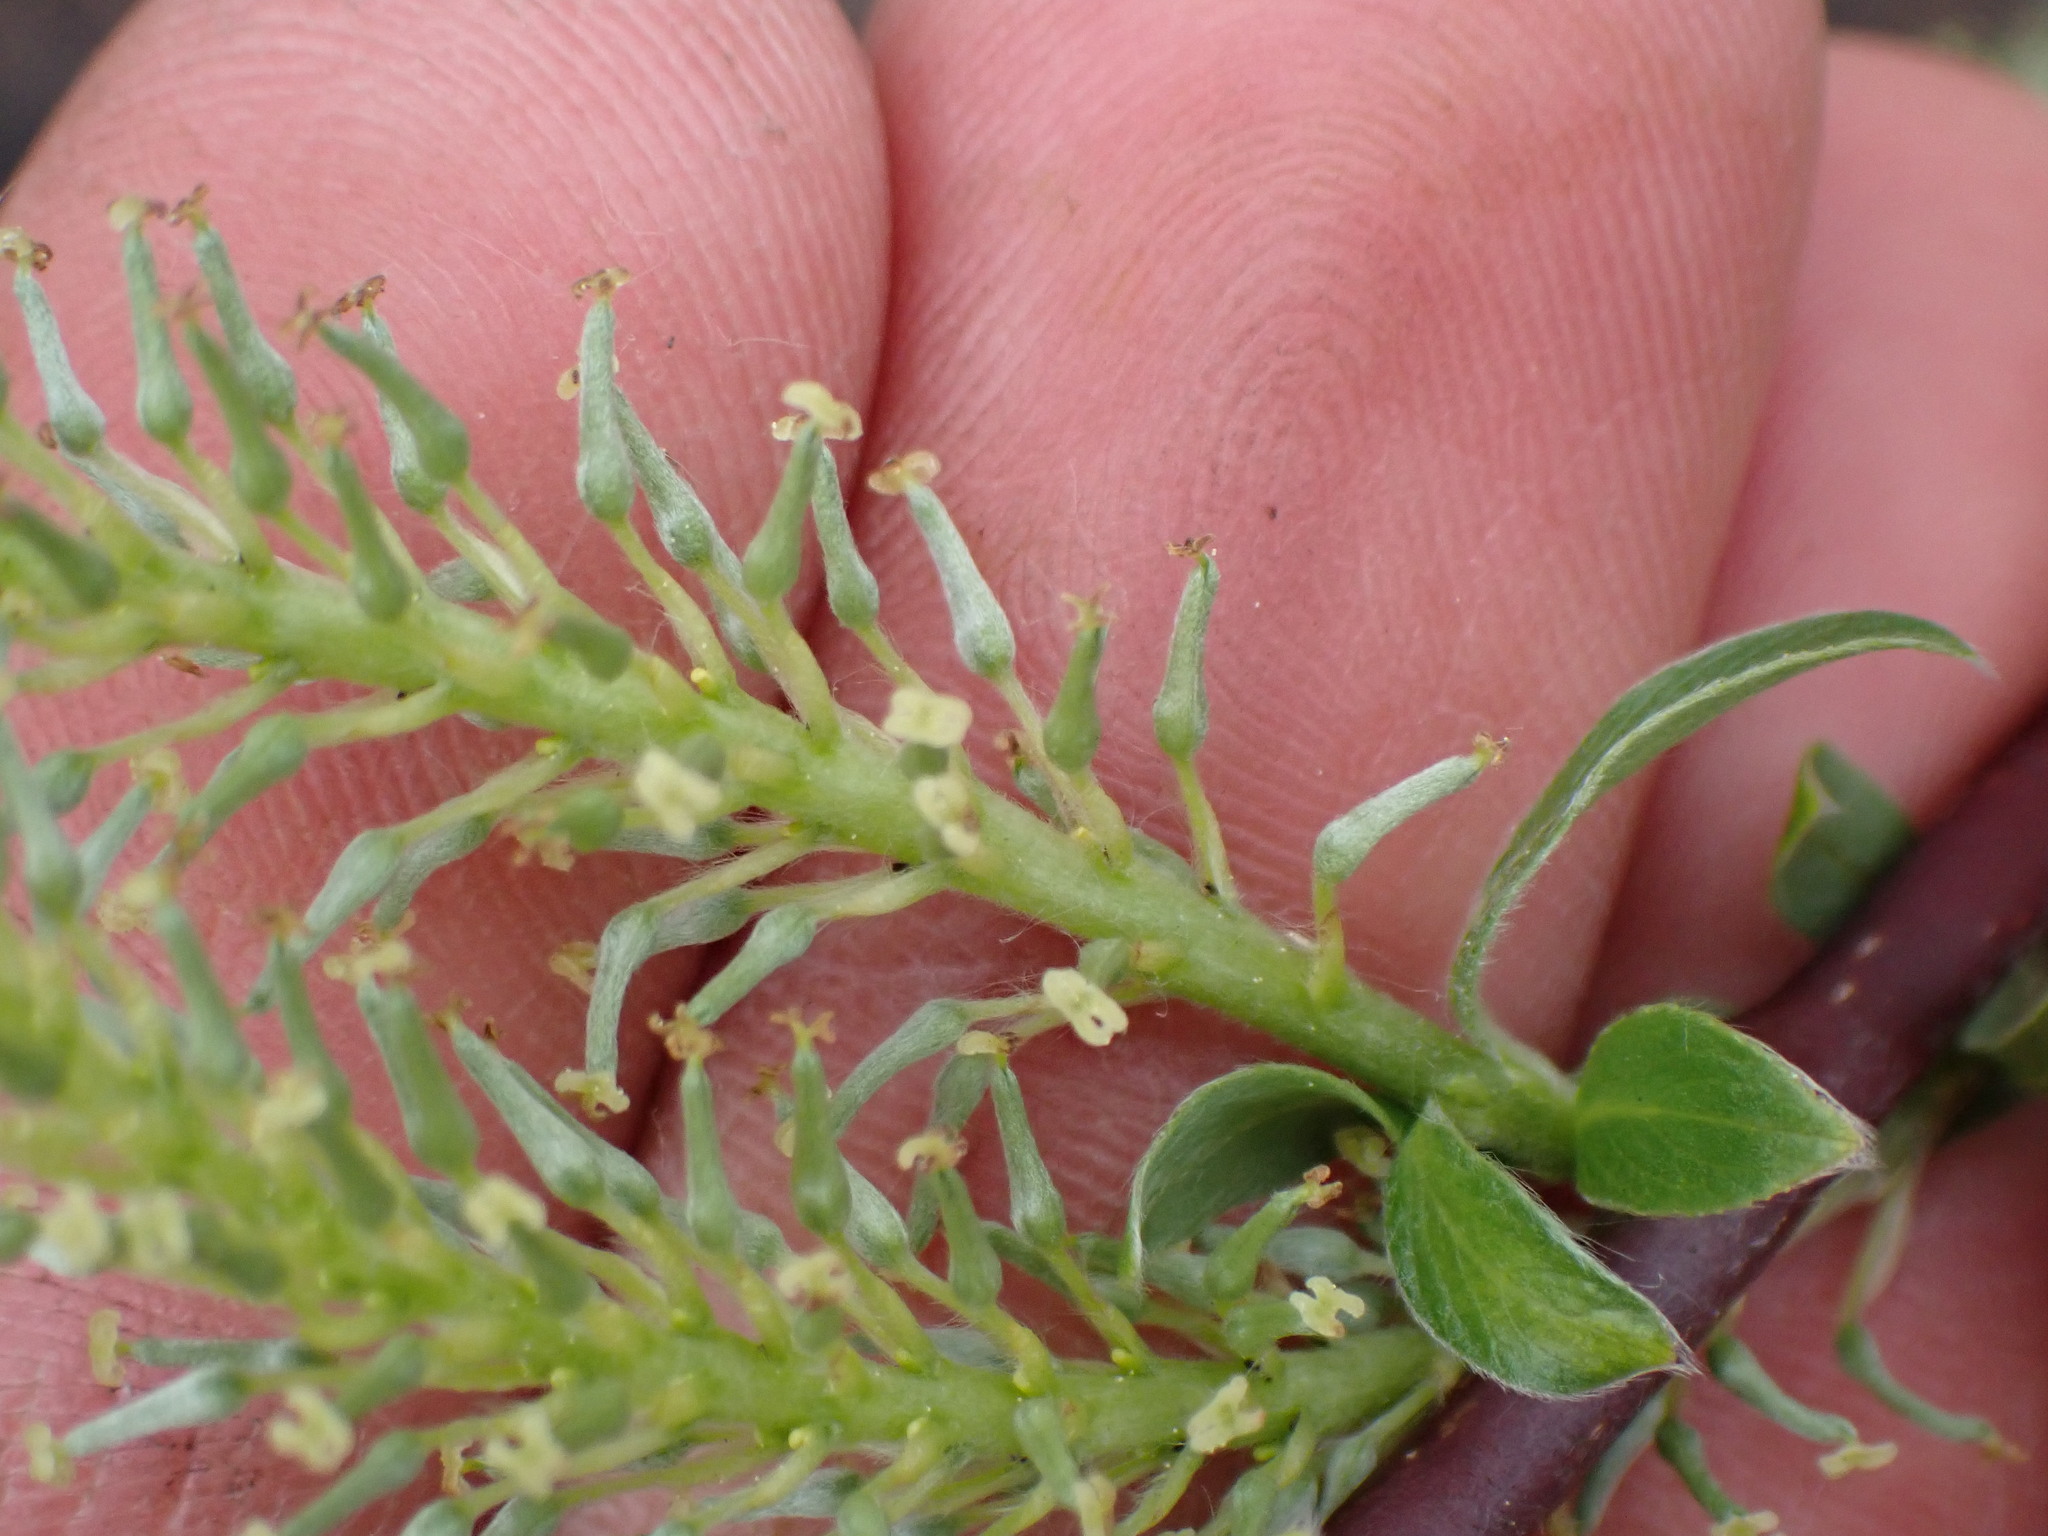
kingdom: Plantae
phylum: Tracheophyta
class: Magnoliopsida
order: Malpighiales
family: Salicaceae
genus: Salix
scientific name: Salix bebbiana
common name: Bebb's willow
